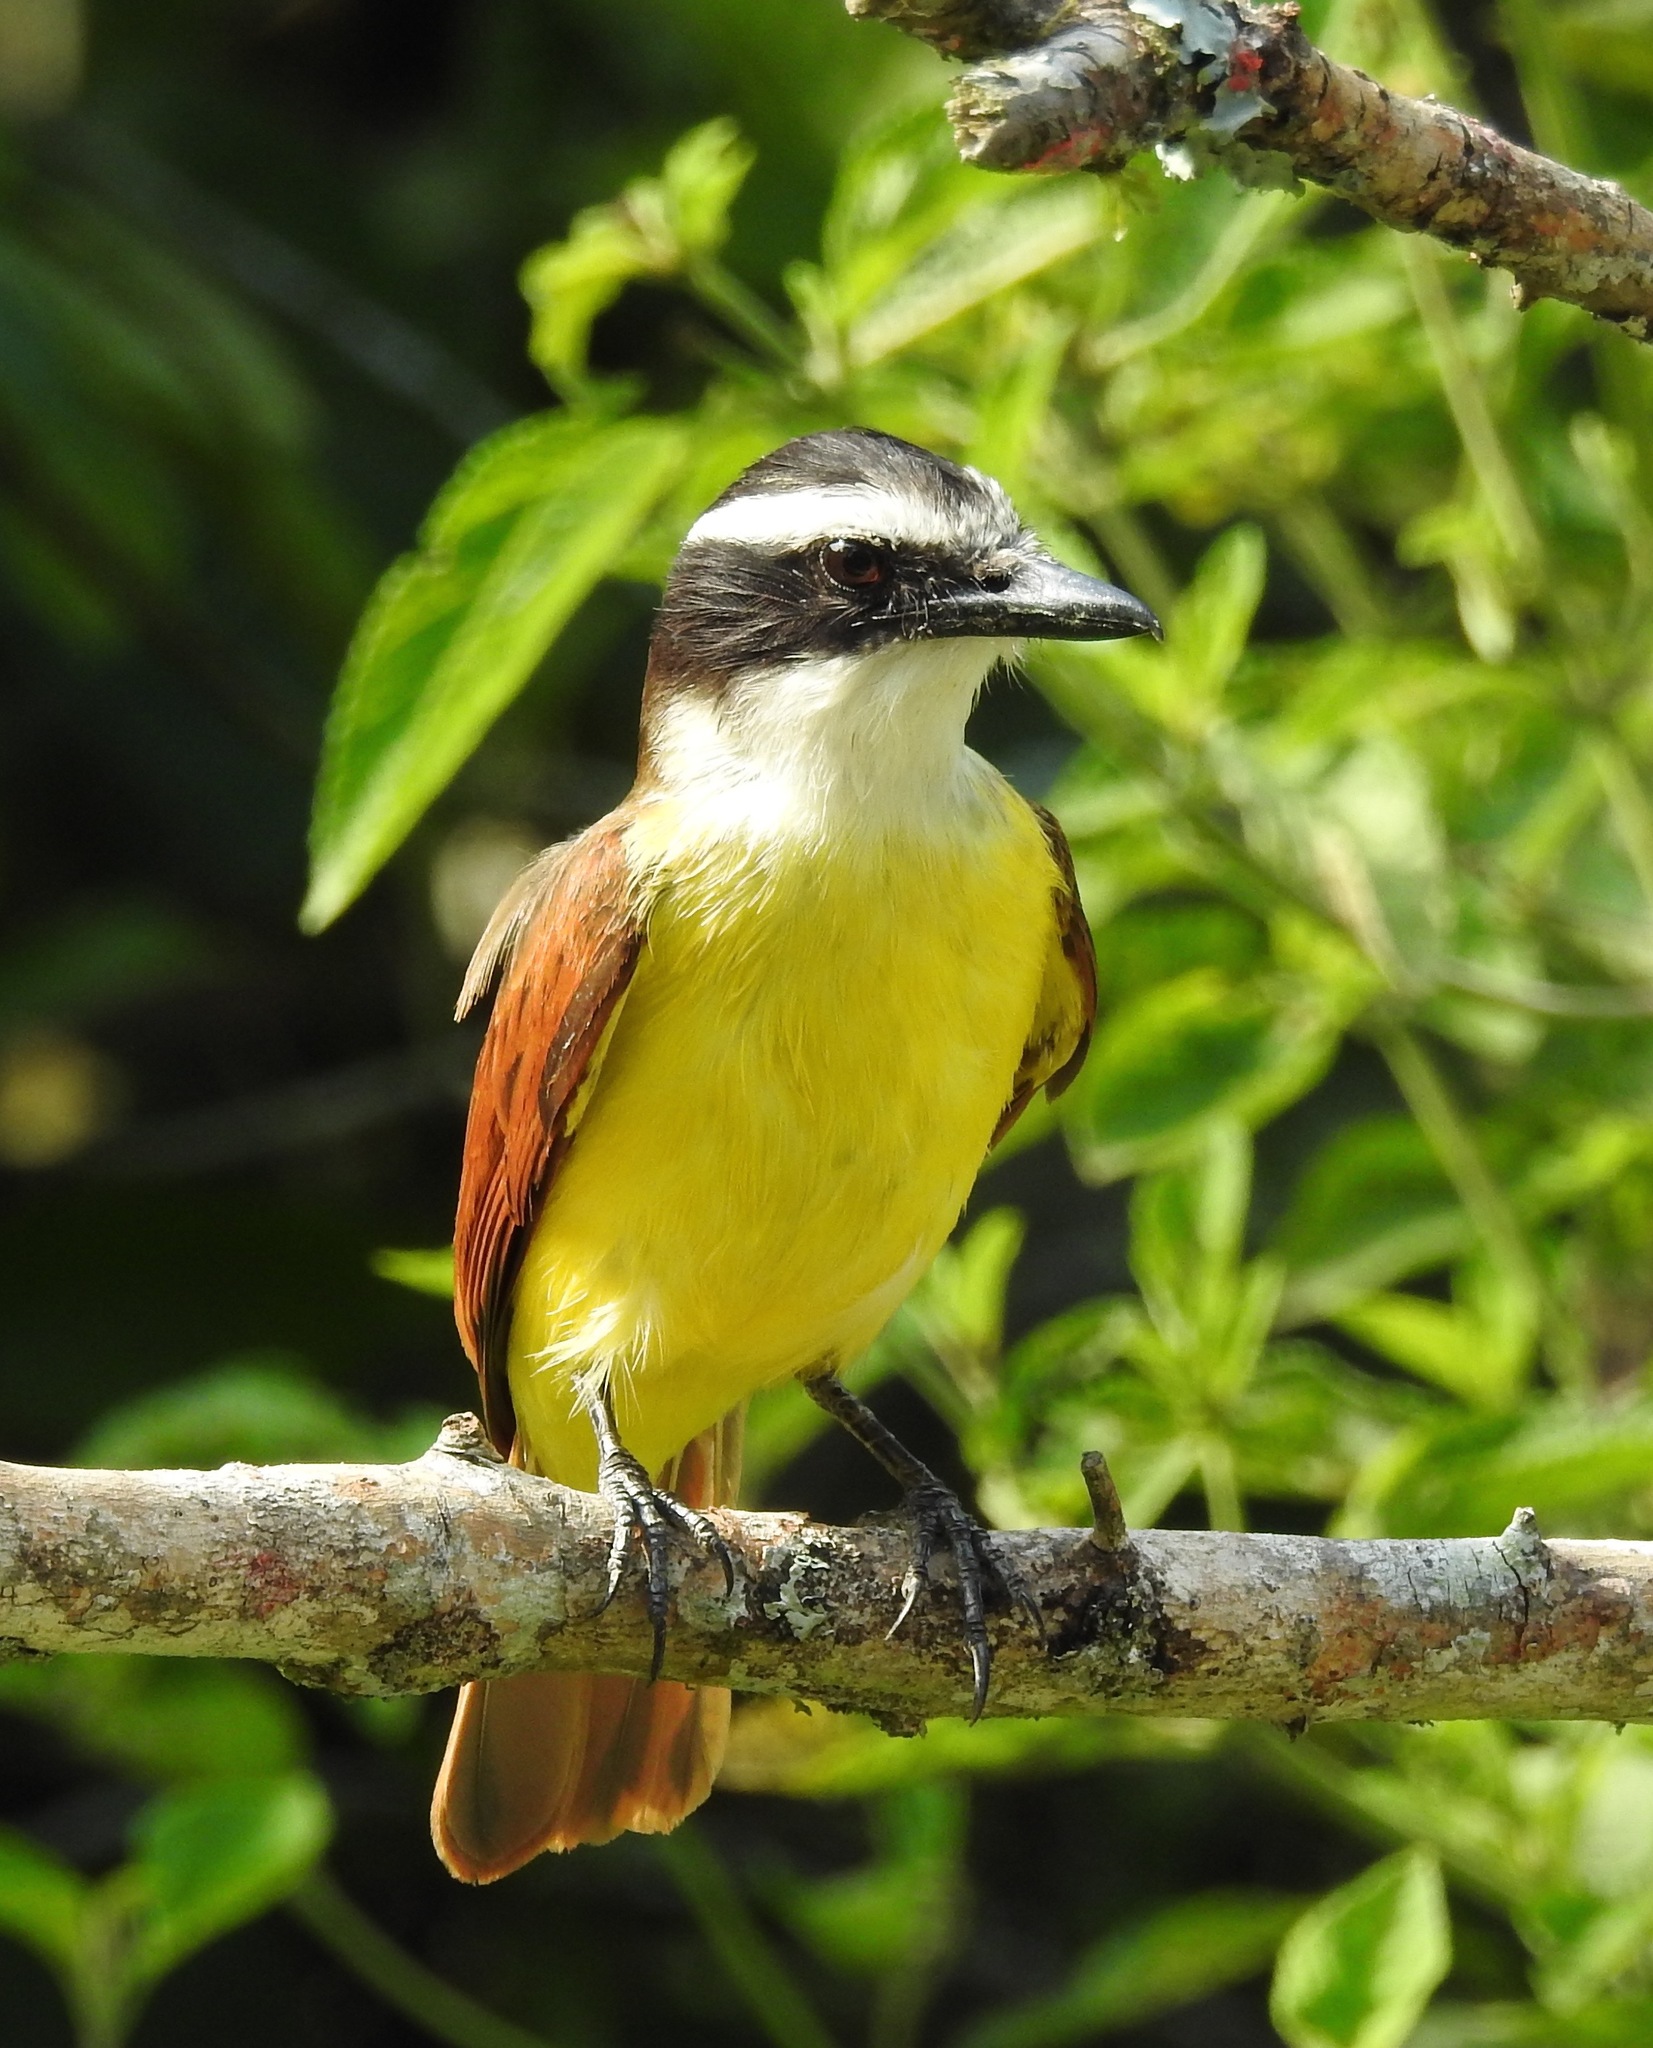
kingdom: Animalia
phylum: Chordata
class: Aves
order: Passeriformes
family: Tyrannidae
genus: Pitangus
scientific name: Pitangus sulphuratus
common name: Great kiskadee
